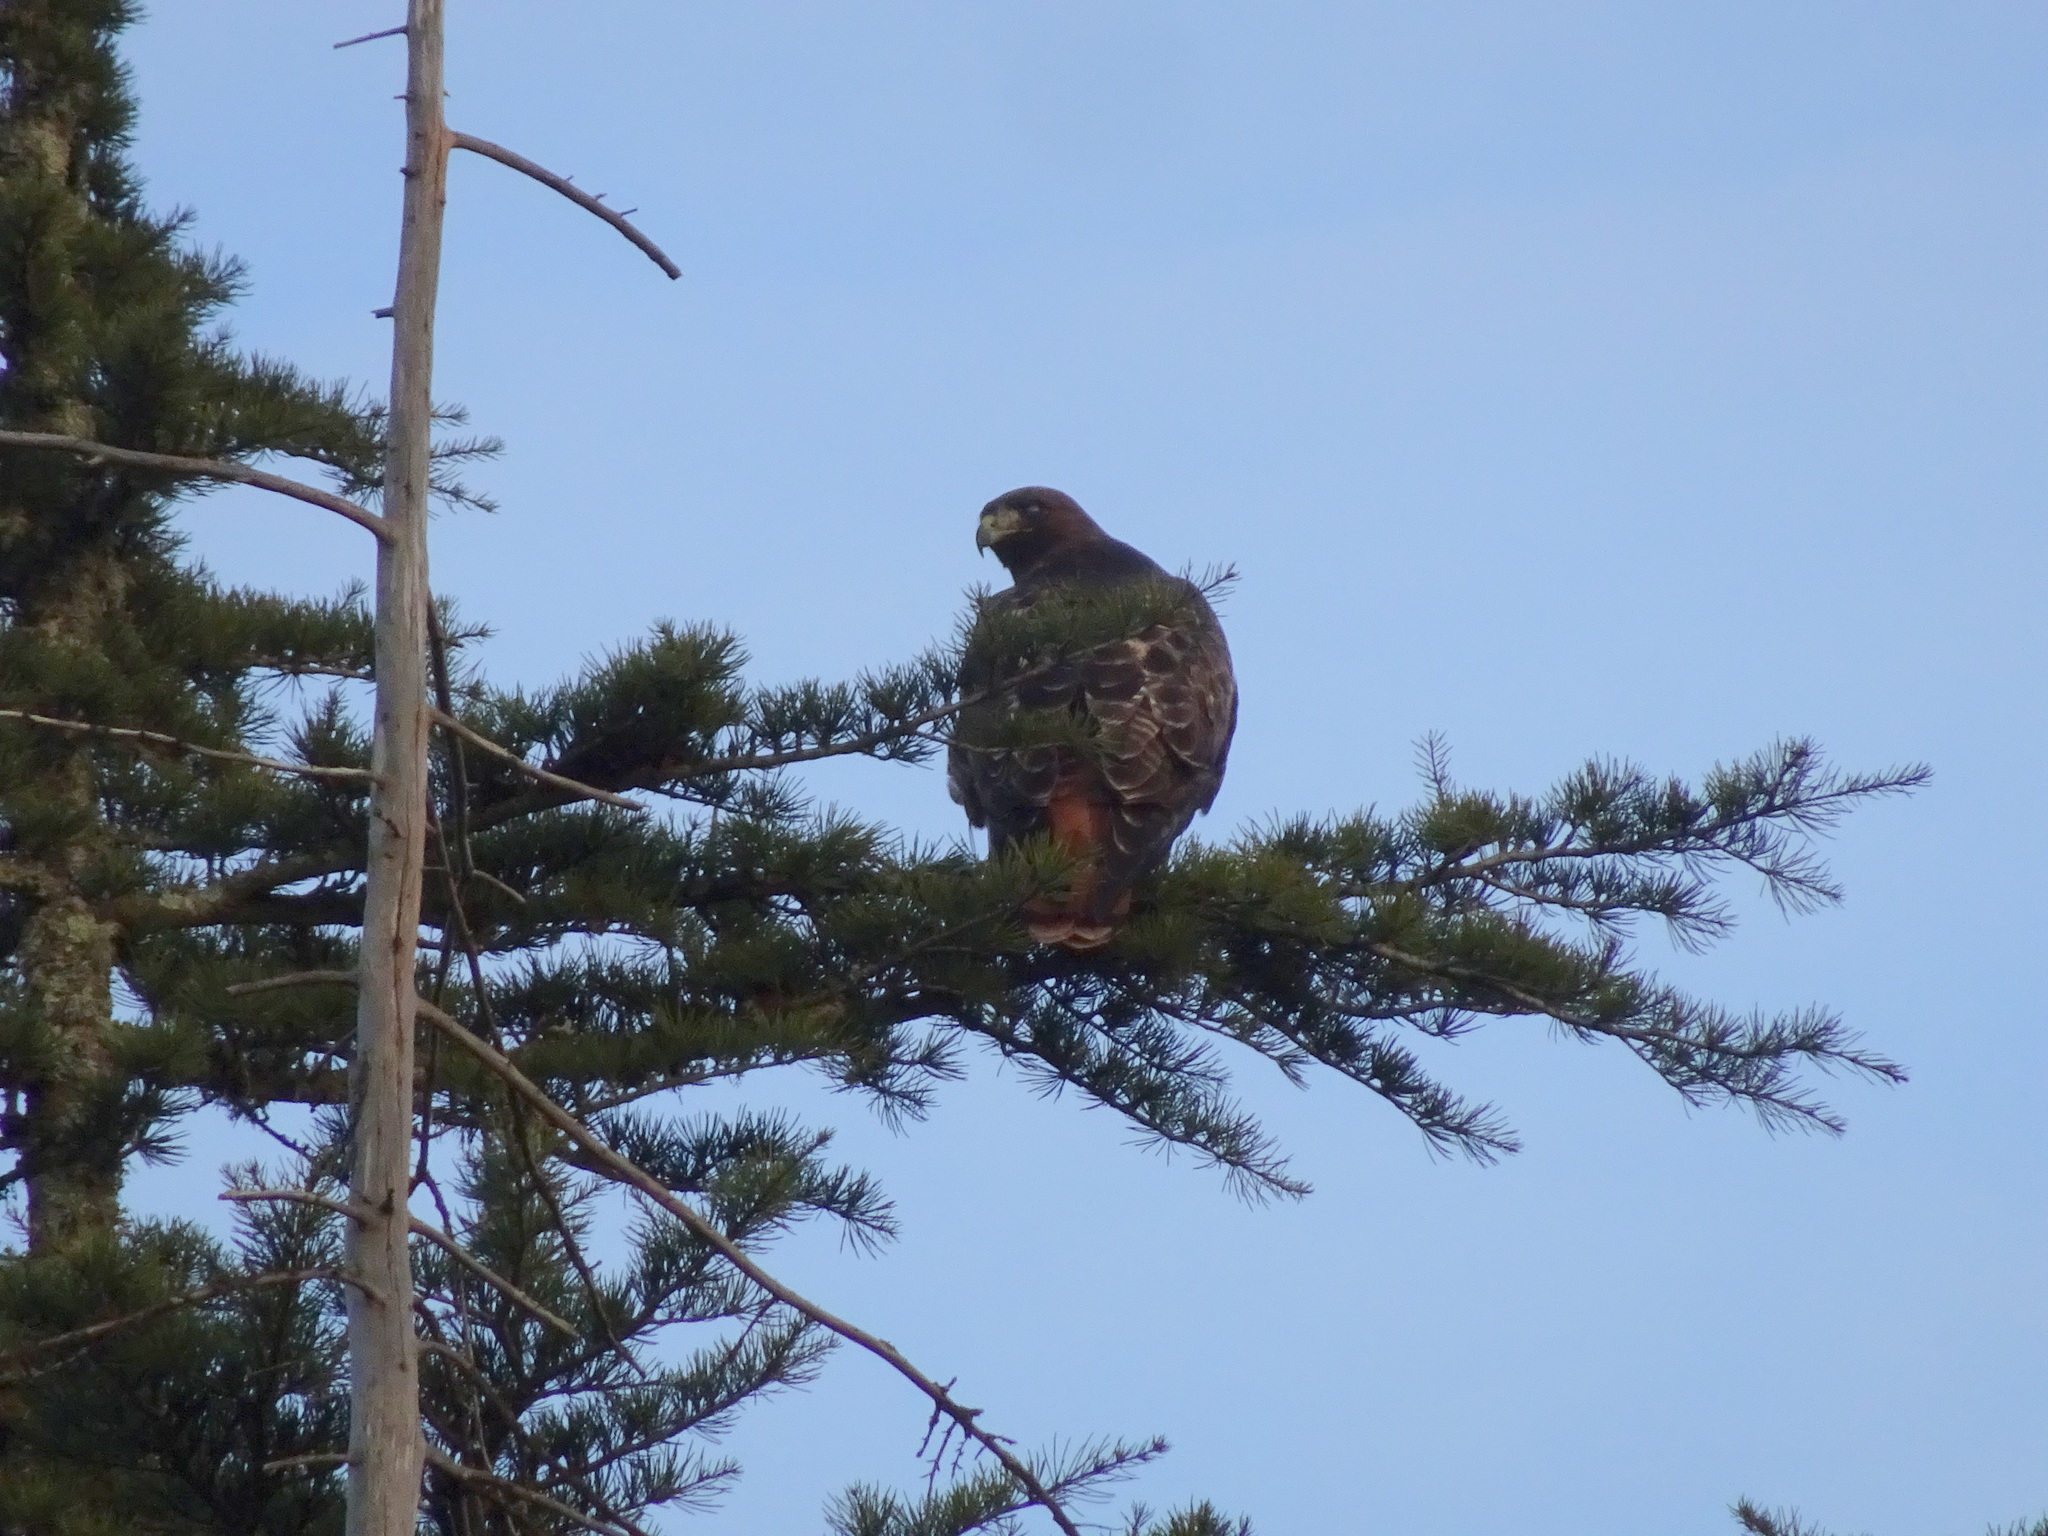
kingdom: Animalia
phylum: Chordata
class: Aves
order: Accipitriformes
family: Accipitridae
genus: Buteo
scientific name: Buteo jamaicensis
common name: Red-tailed hawk
